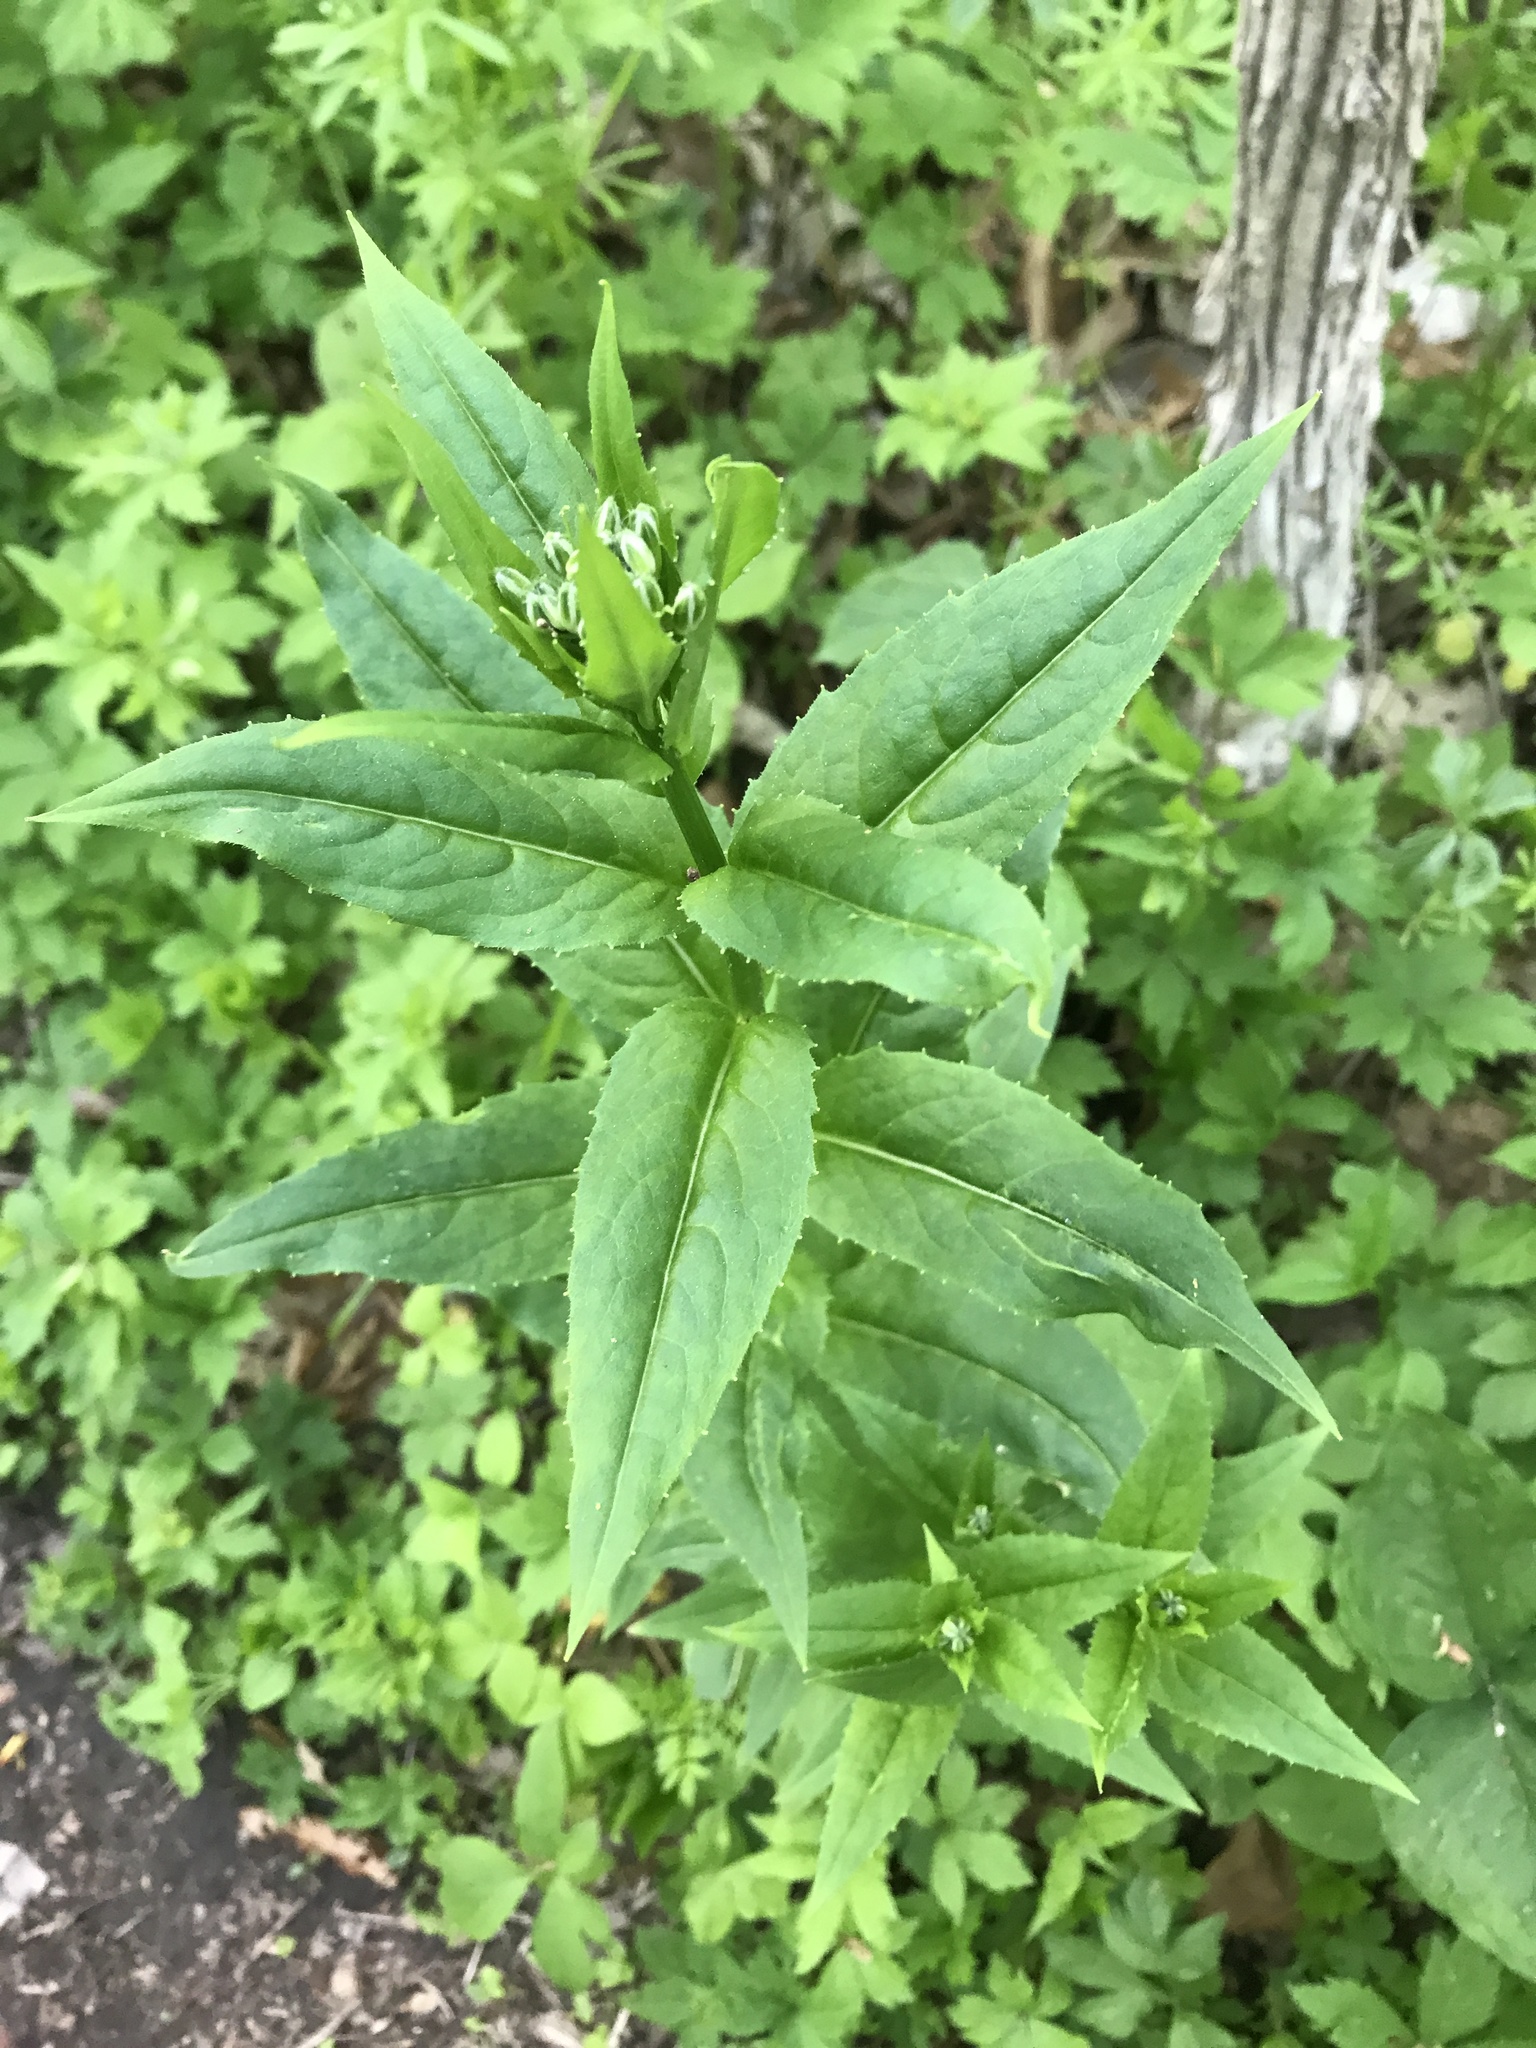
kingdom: Plantae
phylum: Tracheophyta
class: Magnoliopsida
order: Brassicales
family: Brassicaceae
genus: Hesperis
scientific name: Hesperis matronalis
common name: Dame's-violet
